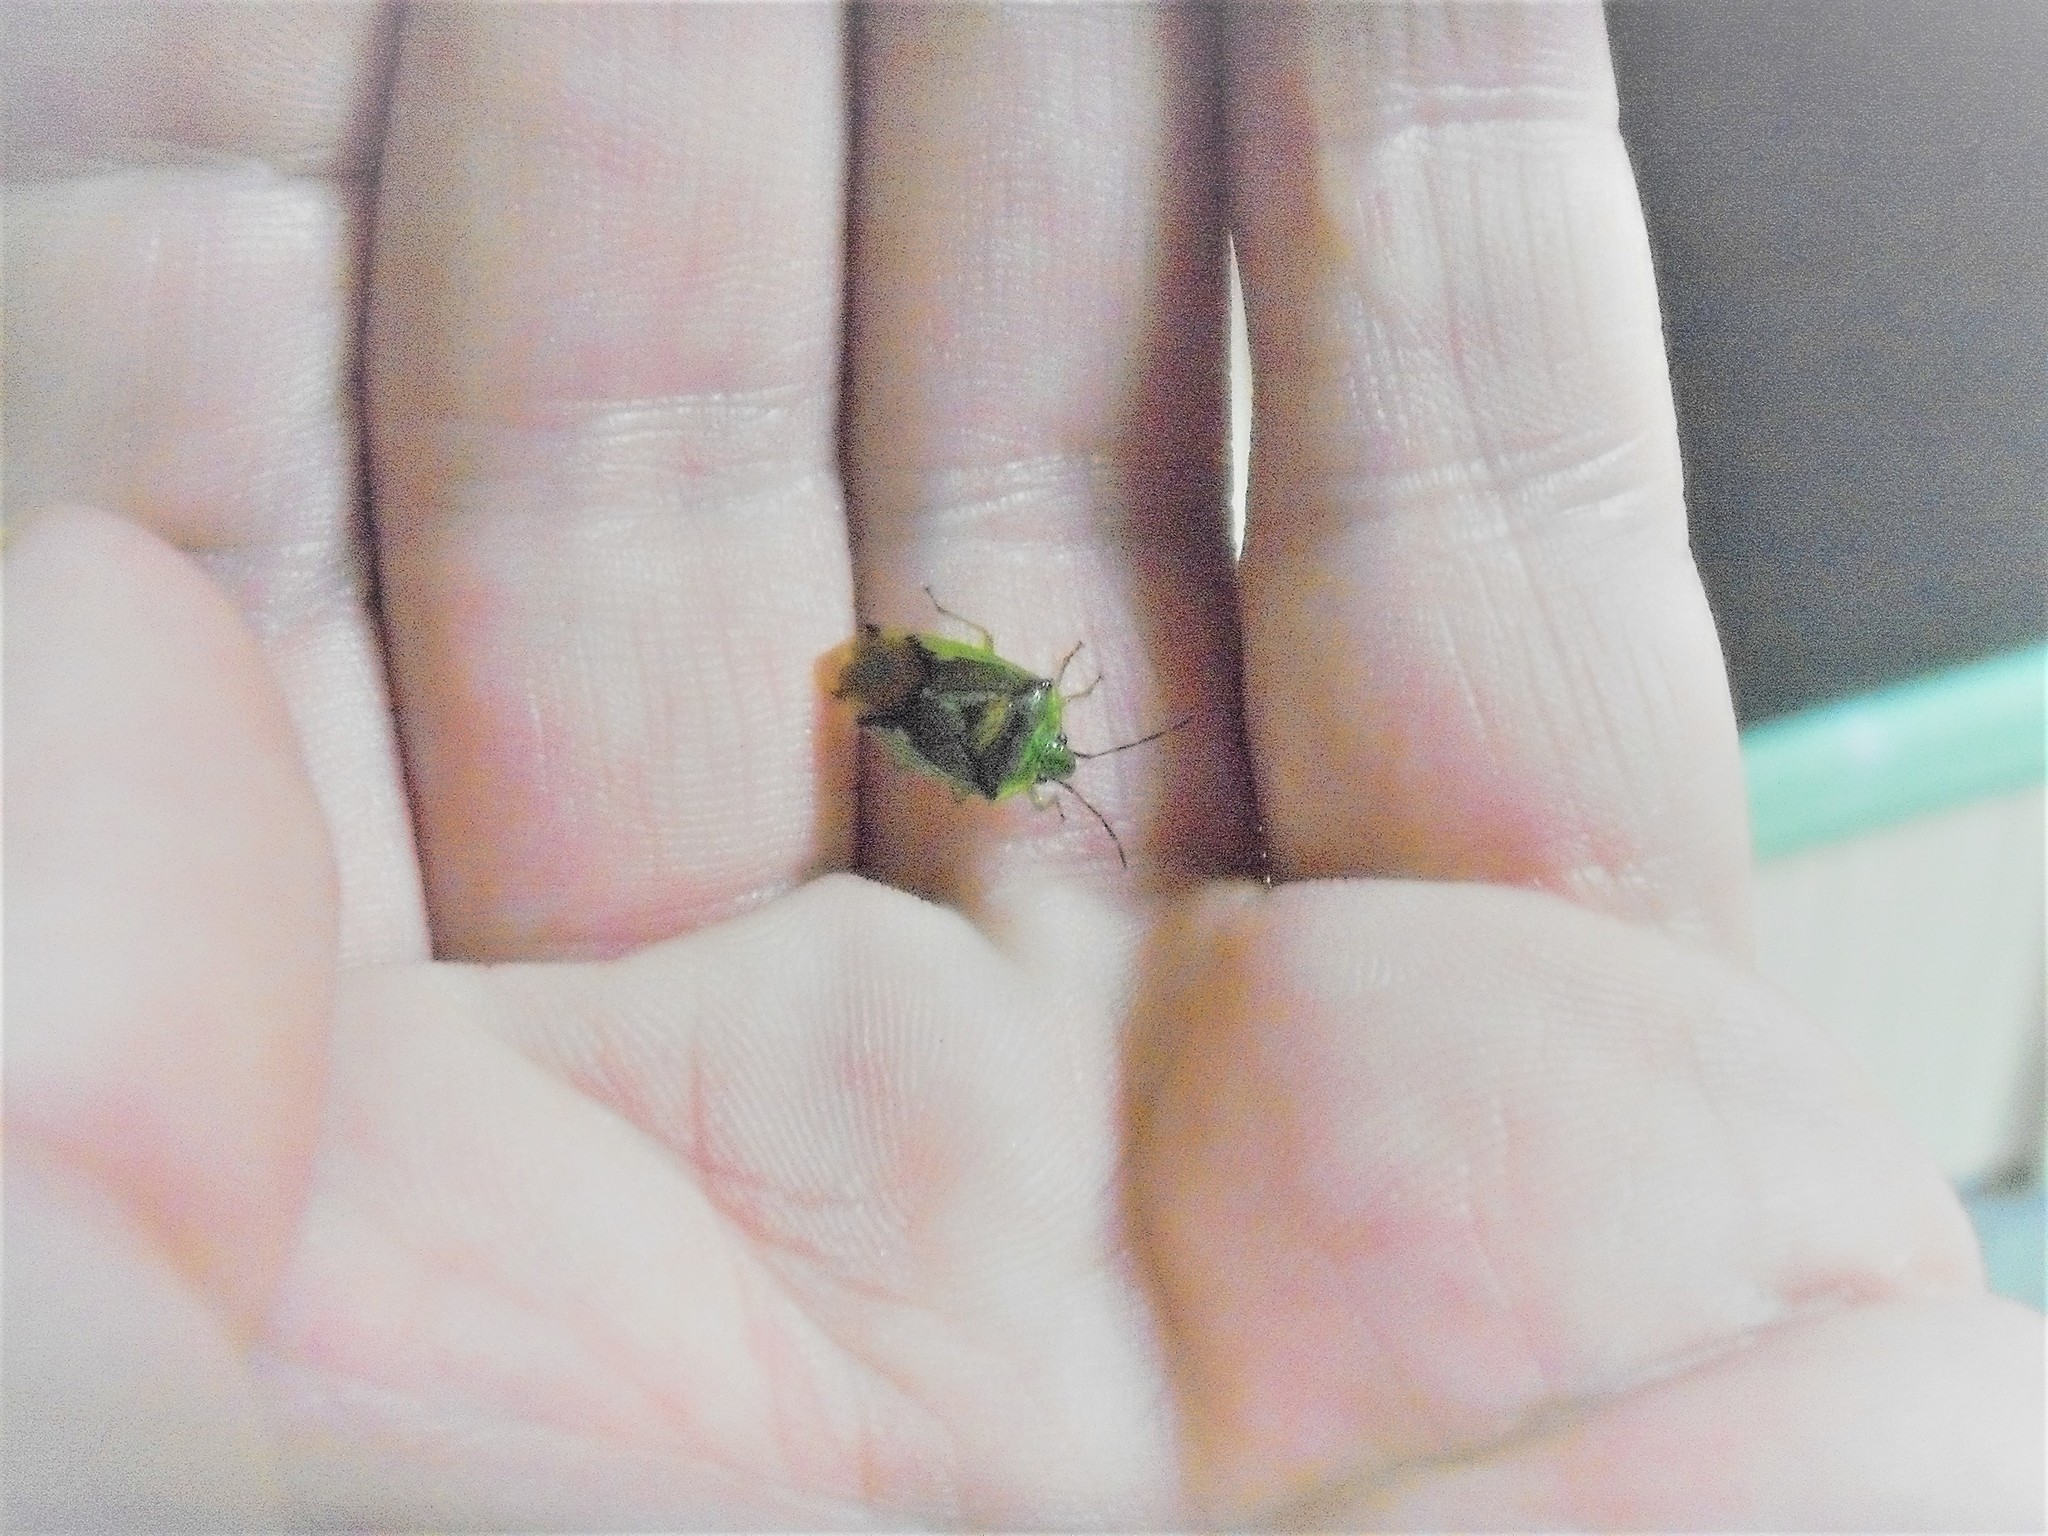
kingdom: Animalia
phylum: Arthropoda
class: Insecta
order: Hemiptera
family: Acanthosomatidae
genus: Oncacontias
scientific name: Oncacontias vittatus
